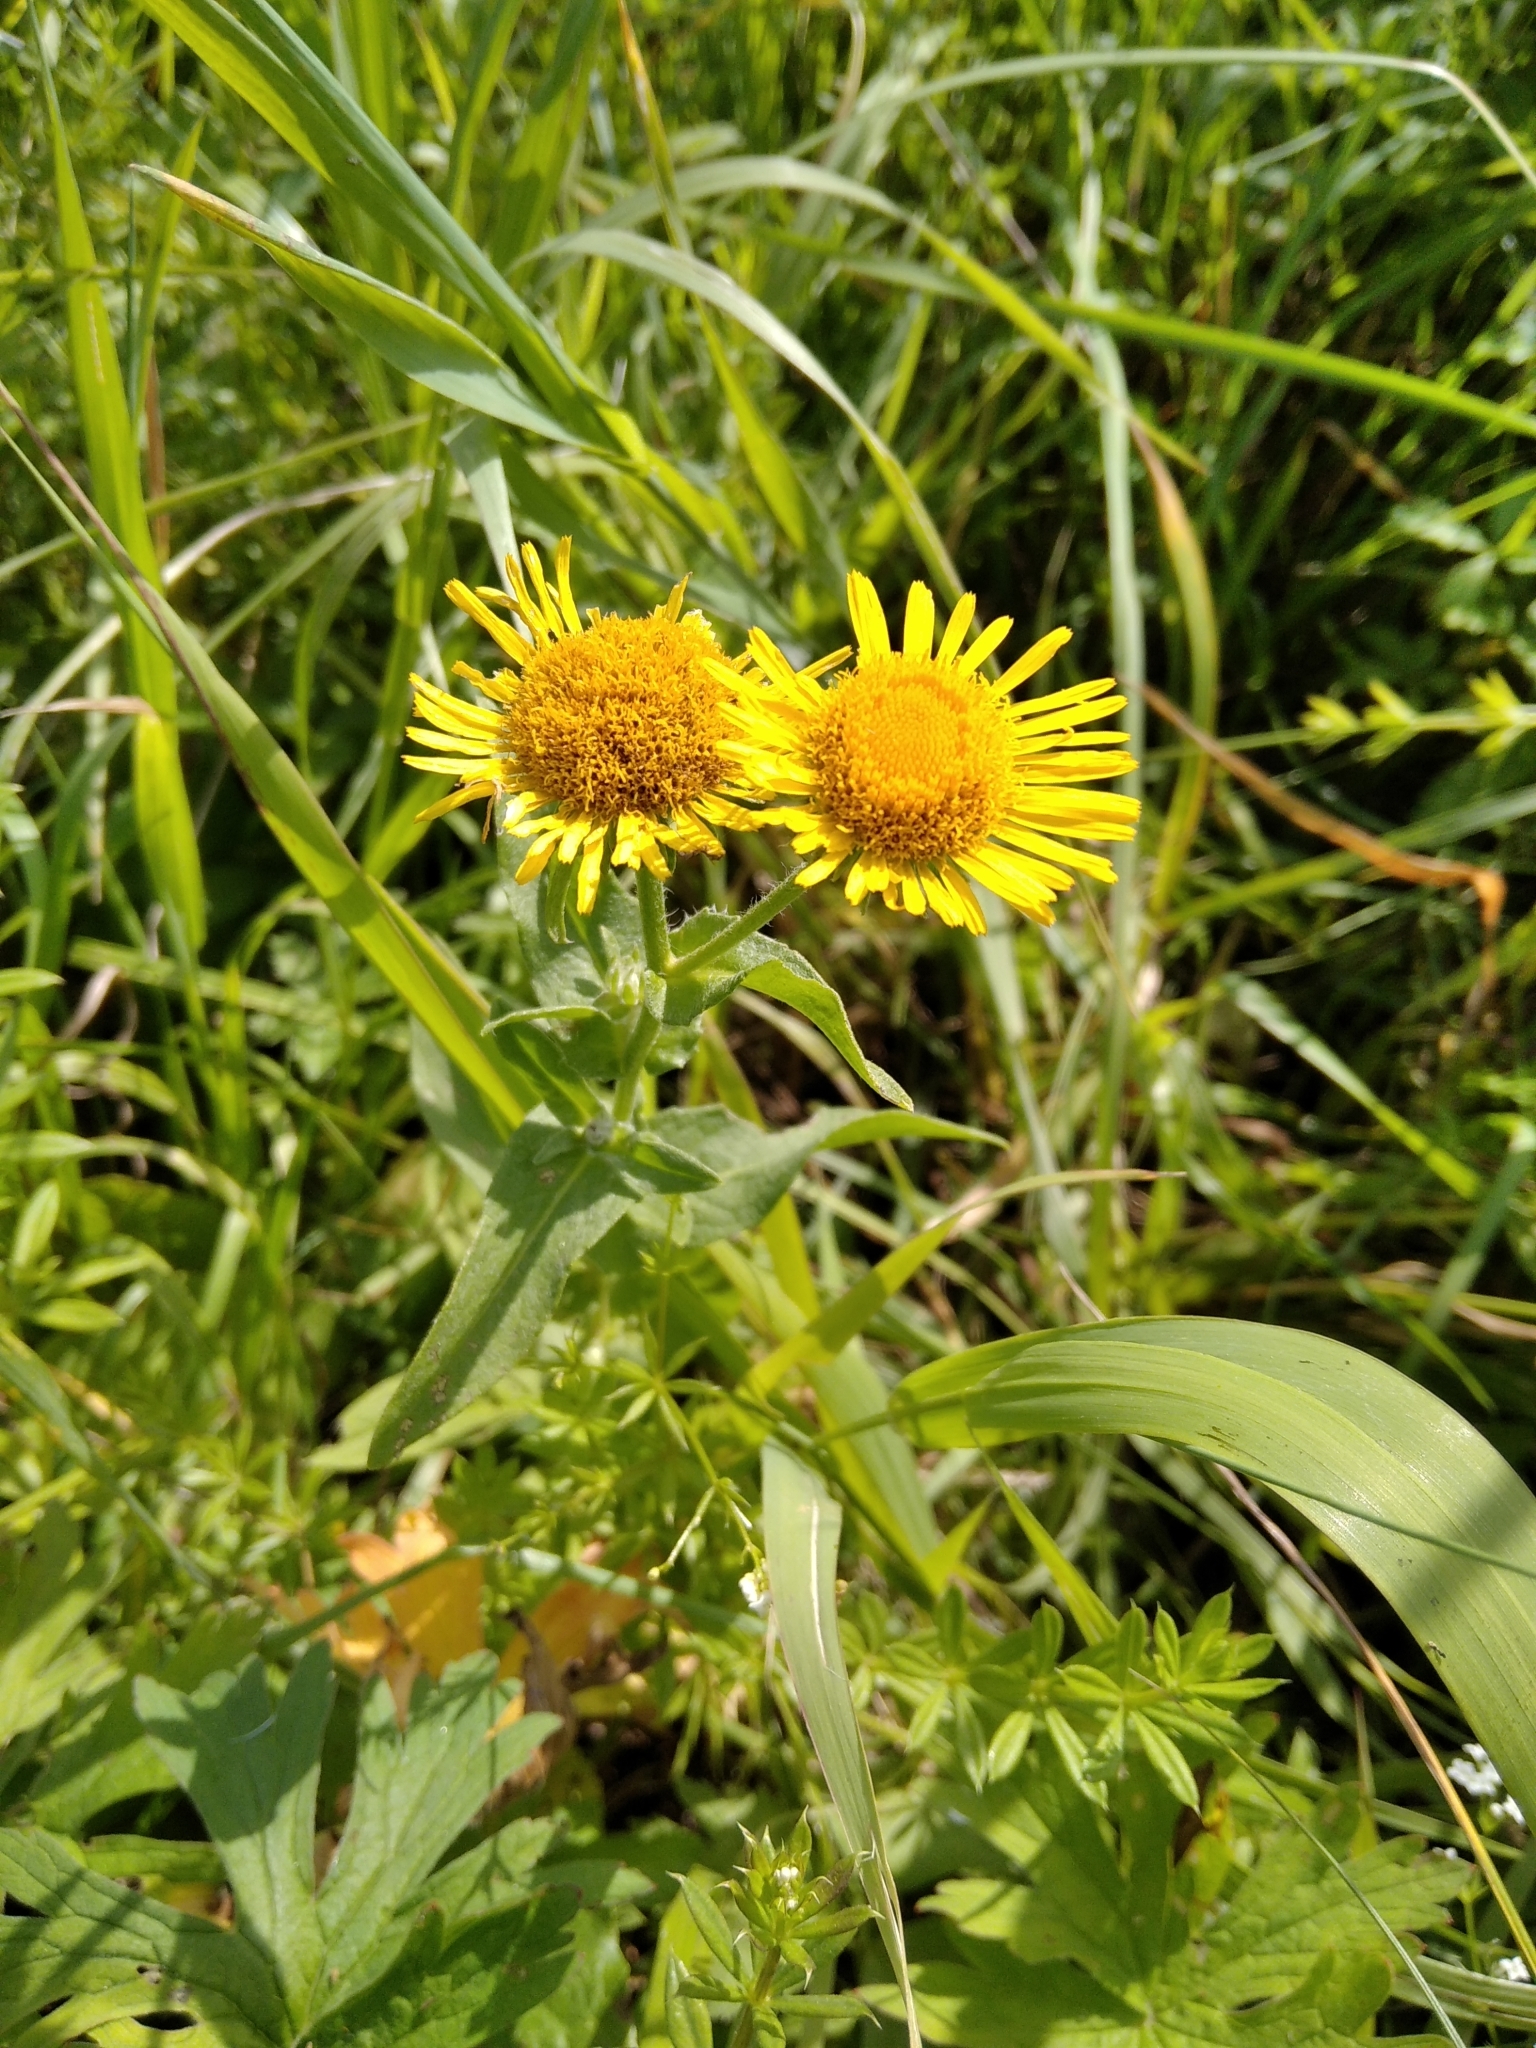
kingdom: Plantae
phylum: Tracheophyta
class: Magnoliopsida
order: Asterales
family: Asteraceae
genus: Pentanema
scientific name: Pentanema britannicum
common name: British elecampane
